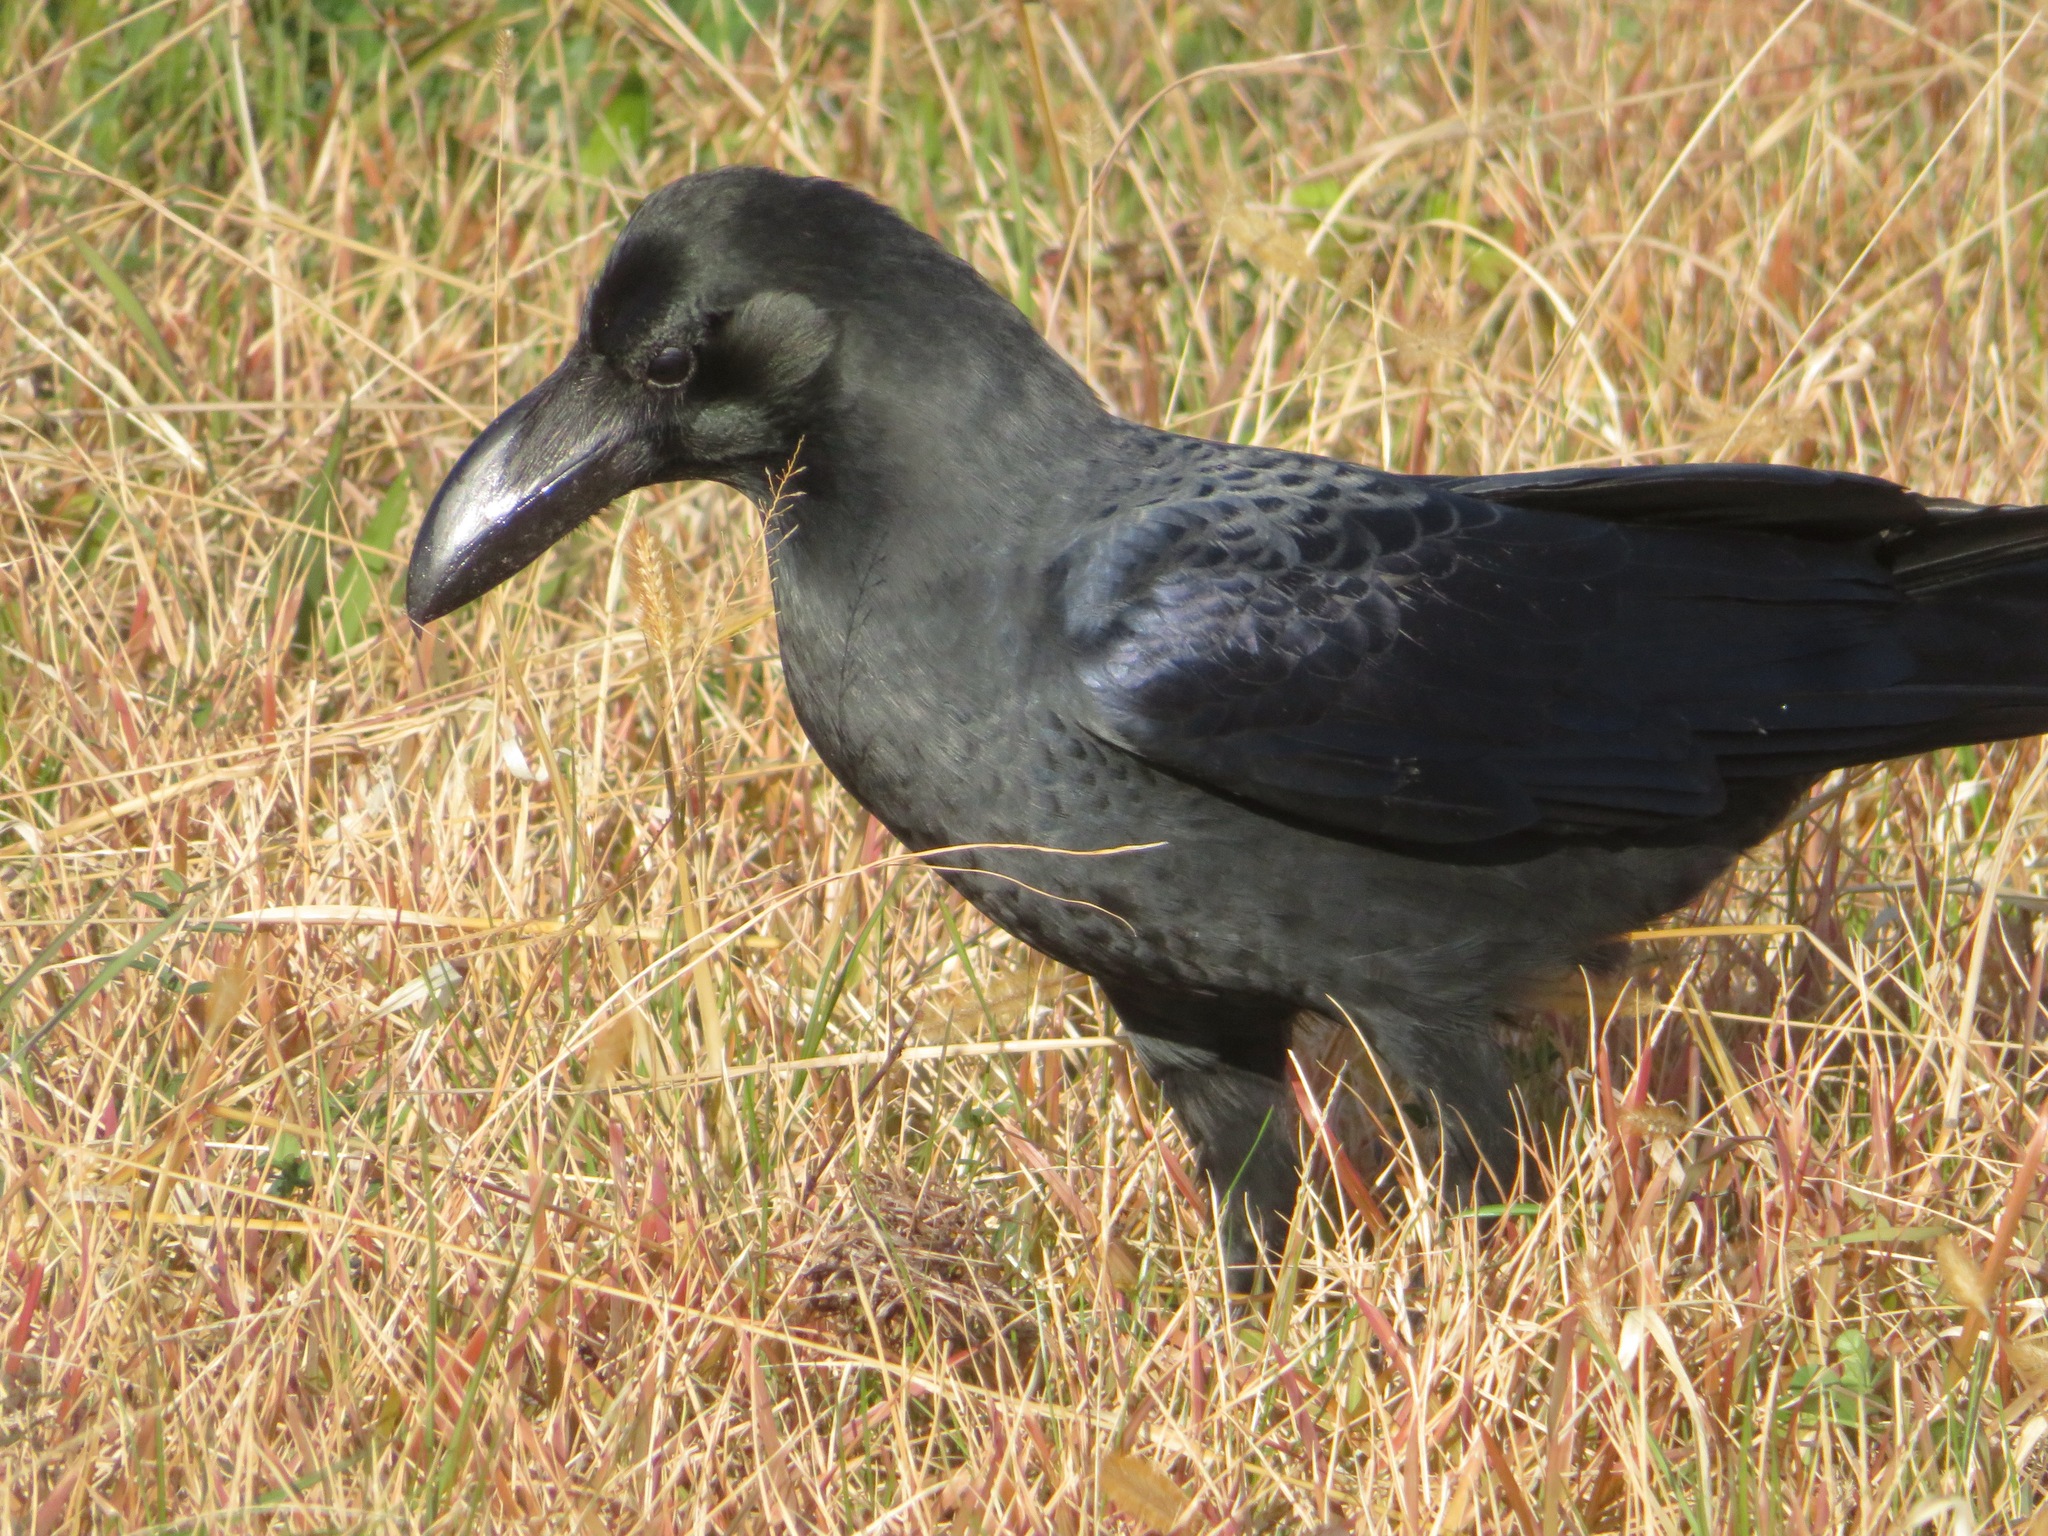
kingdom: Animalia
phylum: Chordata
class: Aves
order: Passeriformes
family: Corvidae
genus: Corvus
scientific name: Corvus macrorhynchos
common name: Large-billed crow
